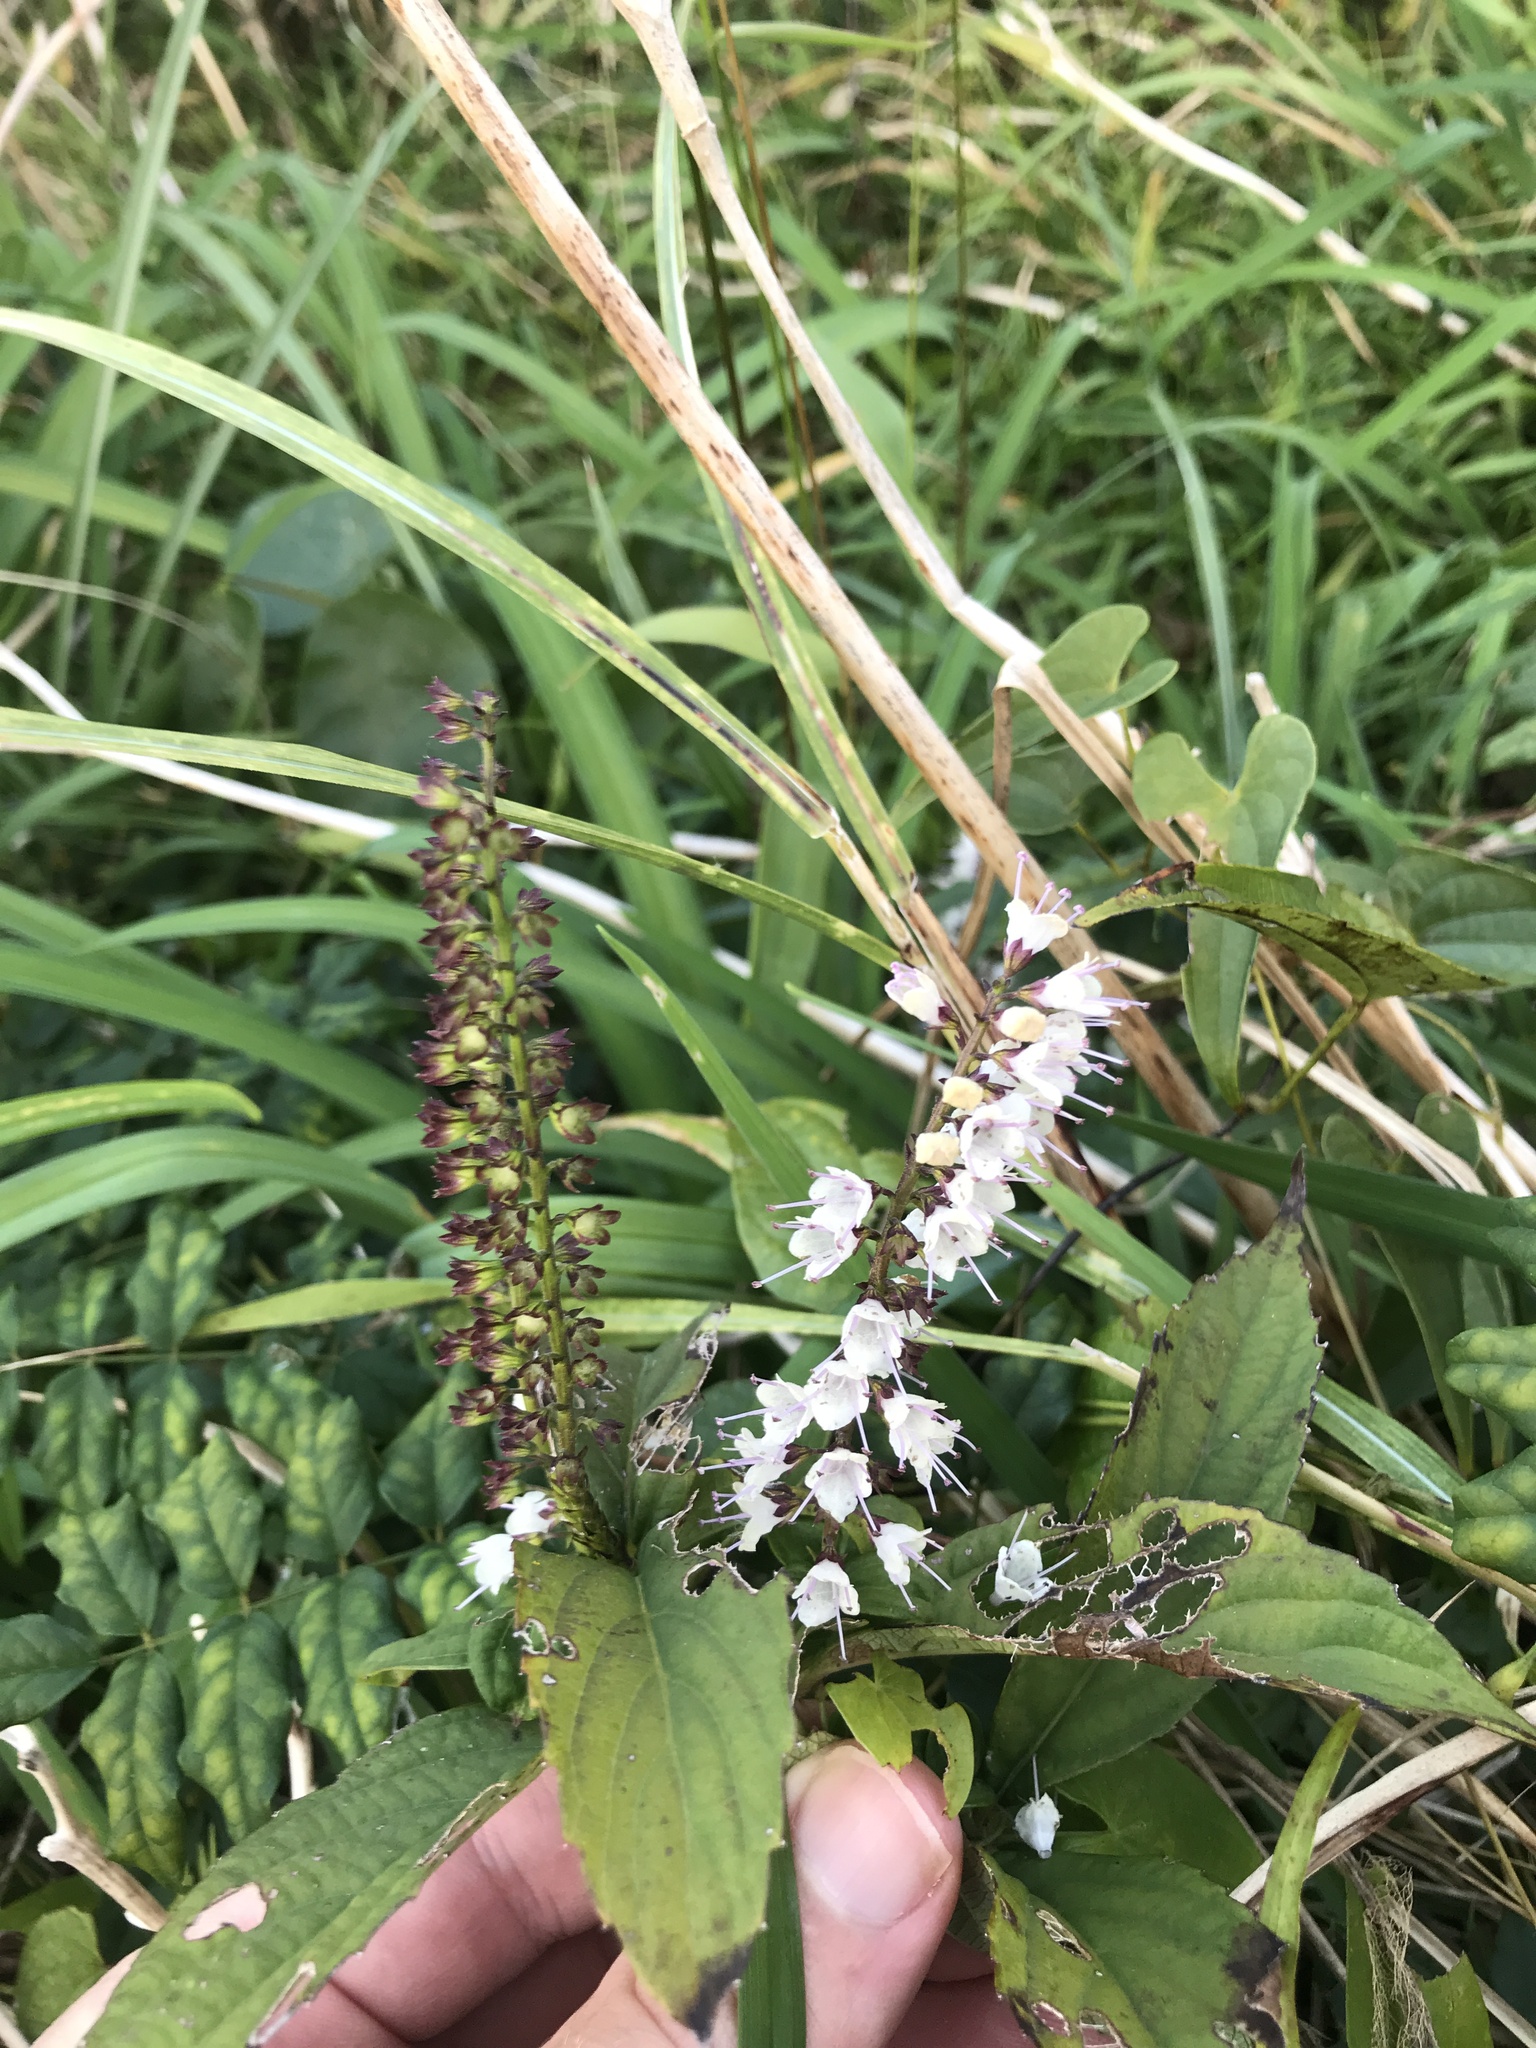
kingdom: Plantae
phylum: Tracheophyta
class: Magnoliopsida
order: Lamiales
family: Lamiaceae
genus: Collinsonia
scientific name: Collinsonia japonica
